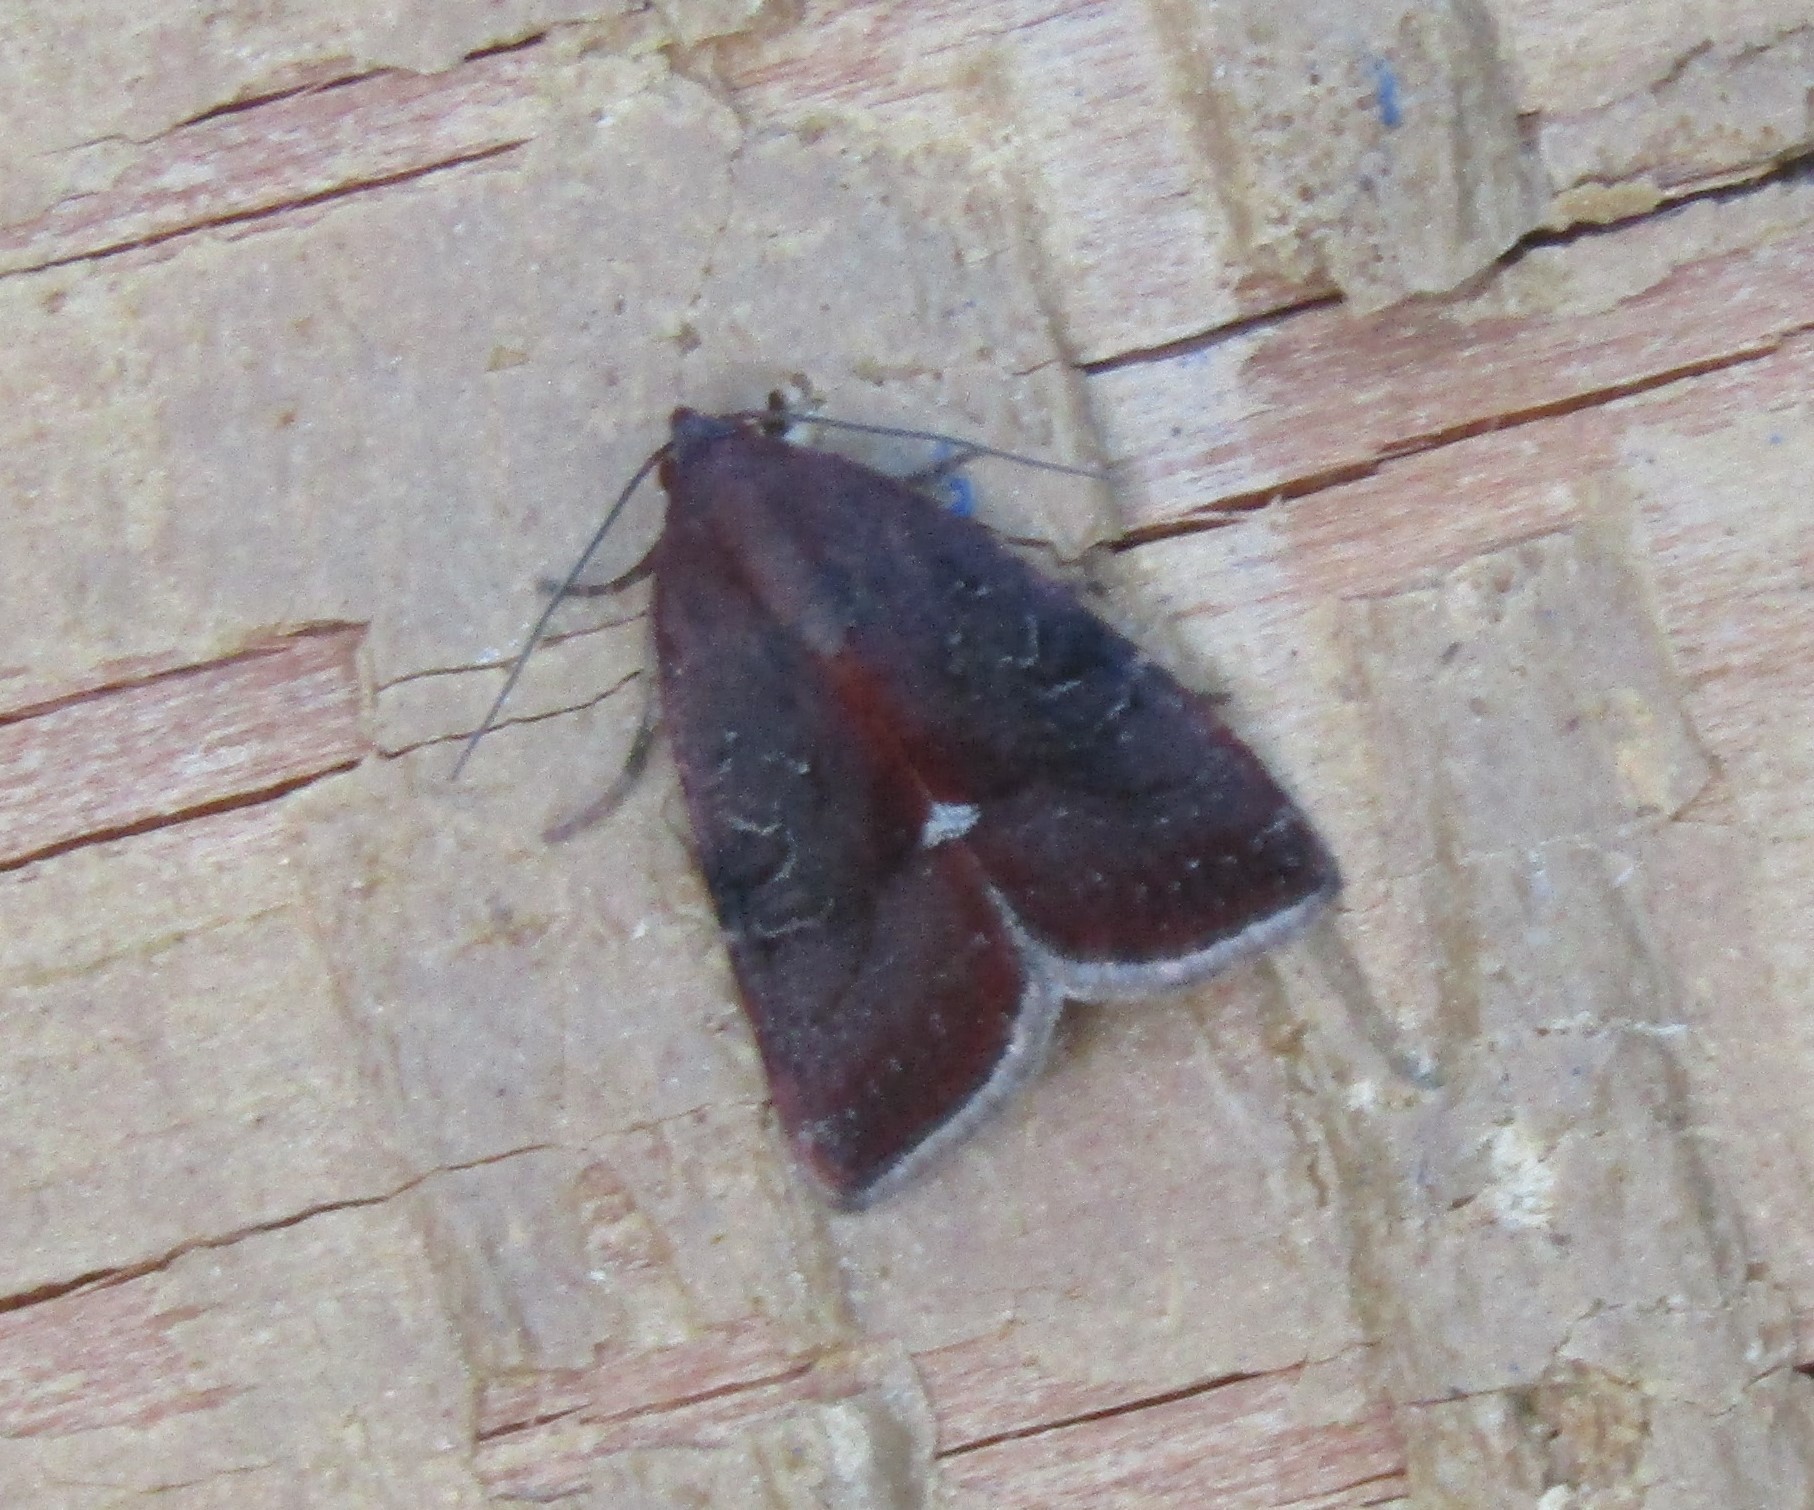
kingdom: Animalia
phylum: Arthropoda
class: Insecta
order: Lepidoptera
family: Noctuidae
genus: Galgula
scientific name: Galgula partita
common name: Wedgeling
